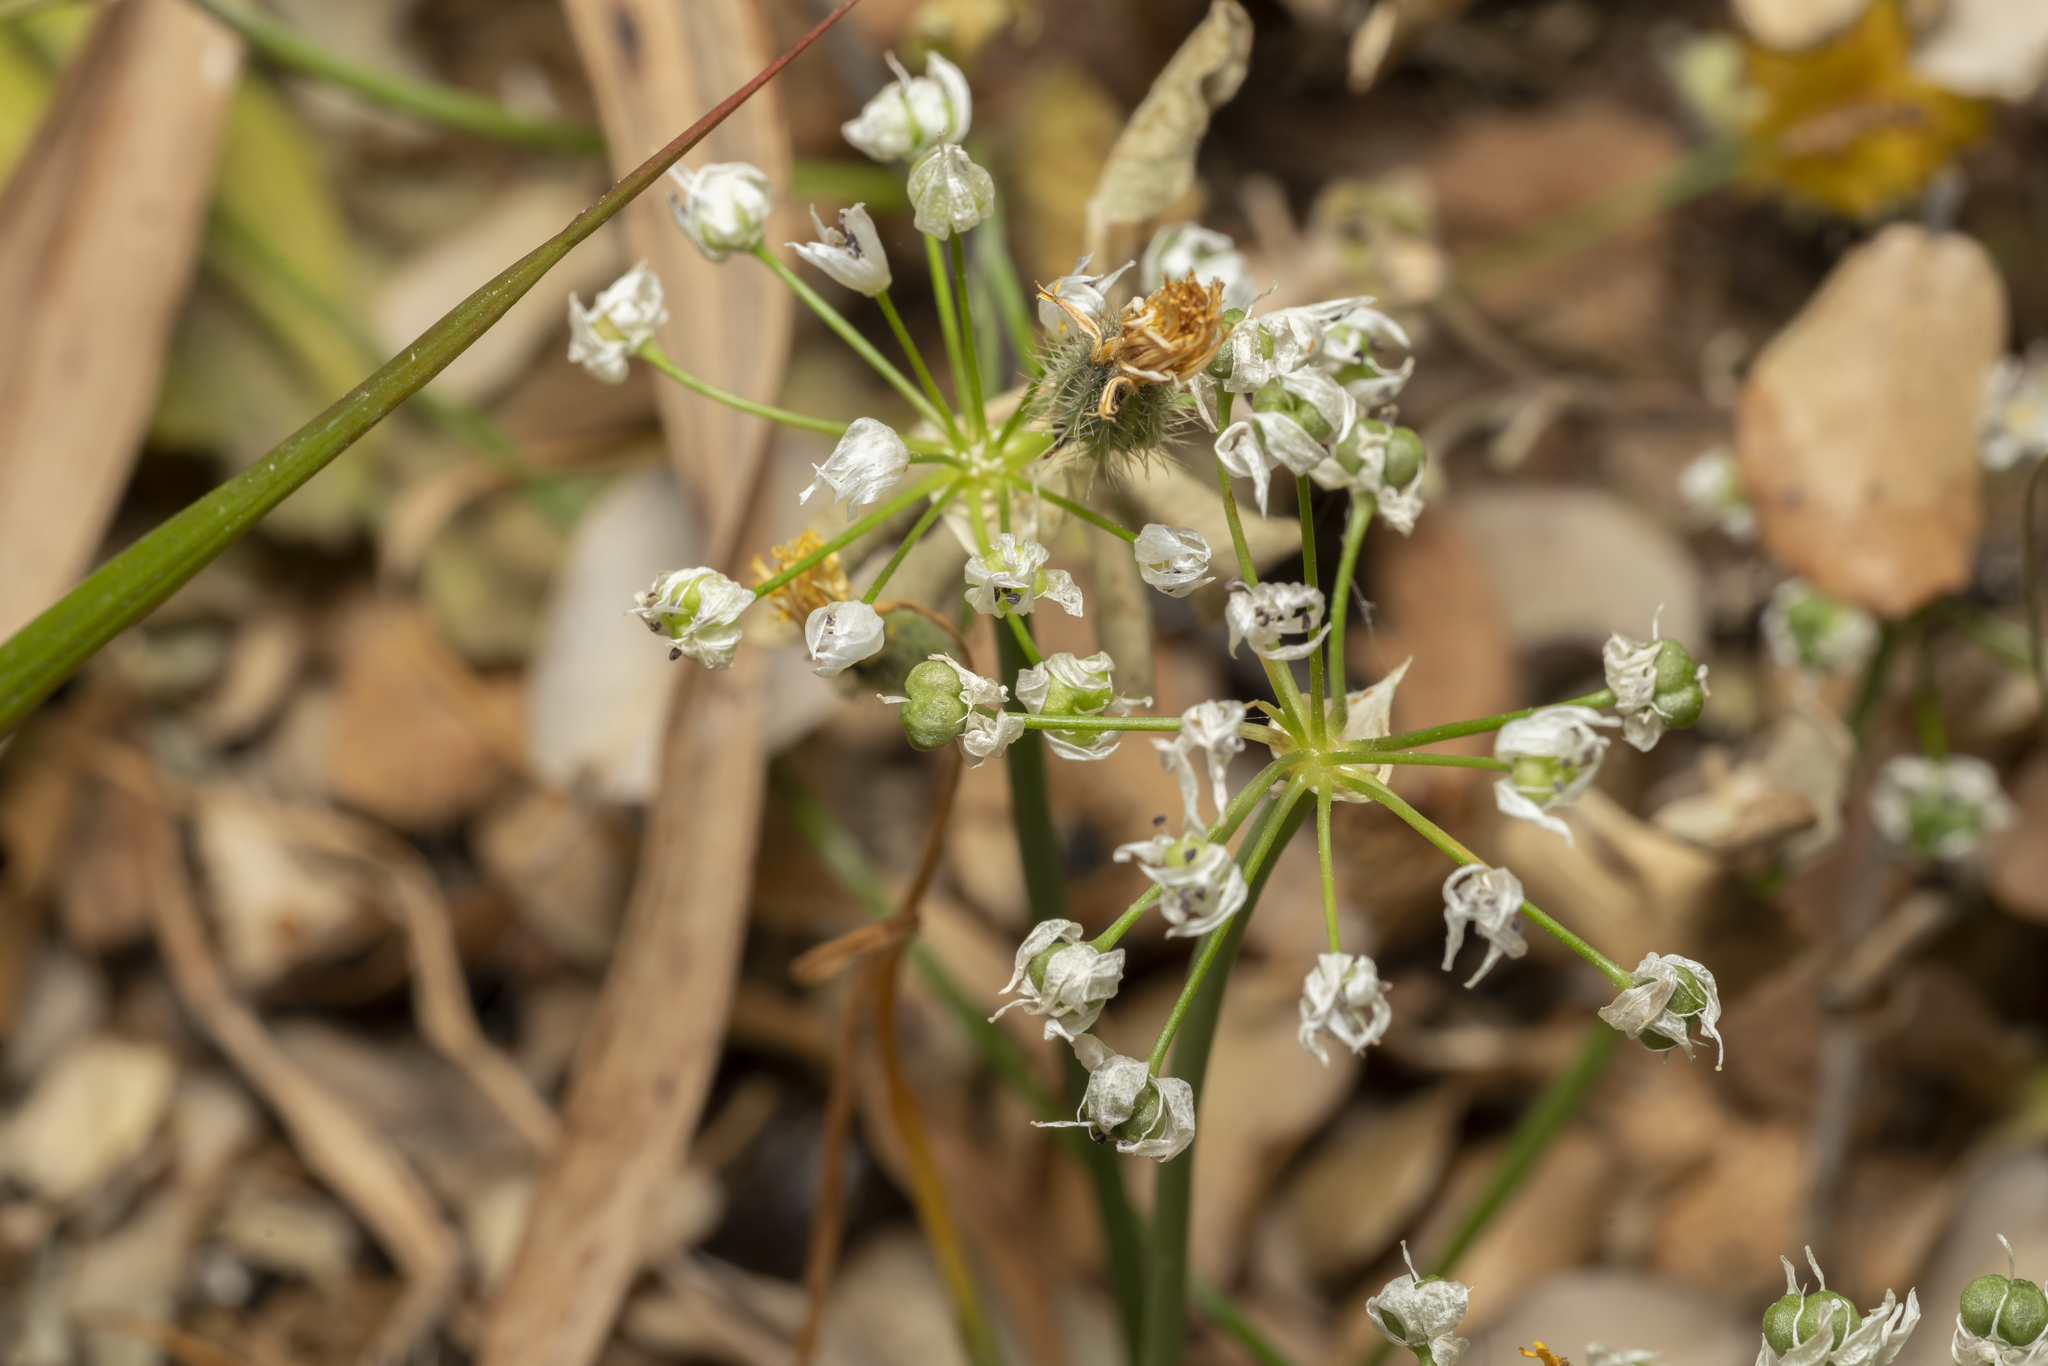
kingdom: Plantae
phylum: Tracheophyta
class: Liliopsida
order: Asparagales
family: Amaryllidaceae
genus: Allium
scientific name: Allium subhirsutum
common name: Hairy garlic
